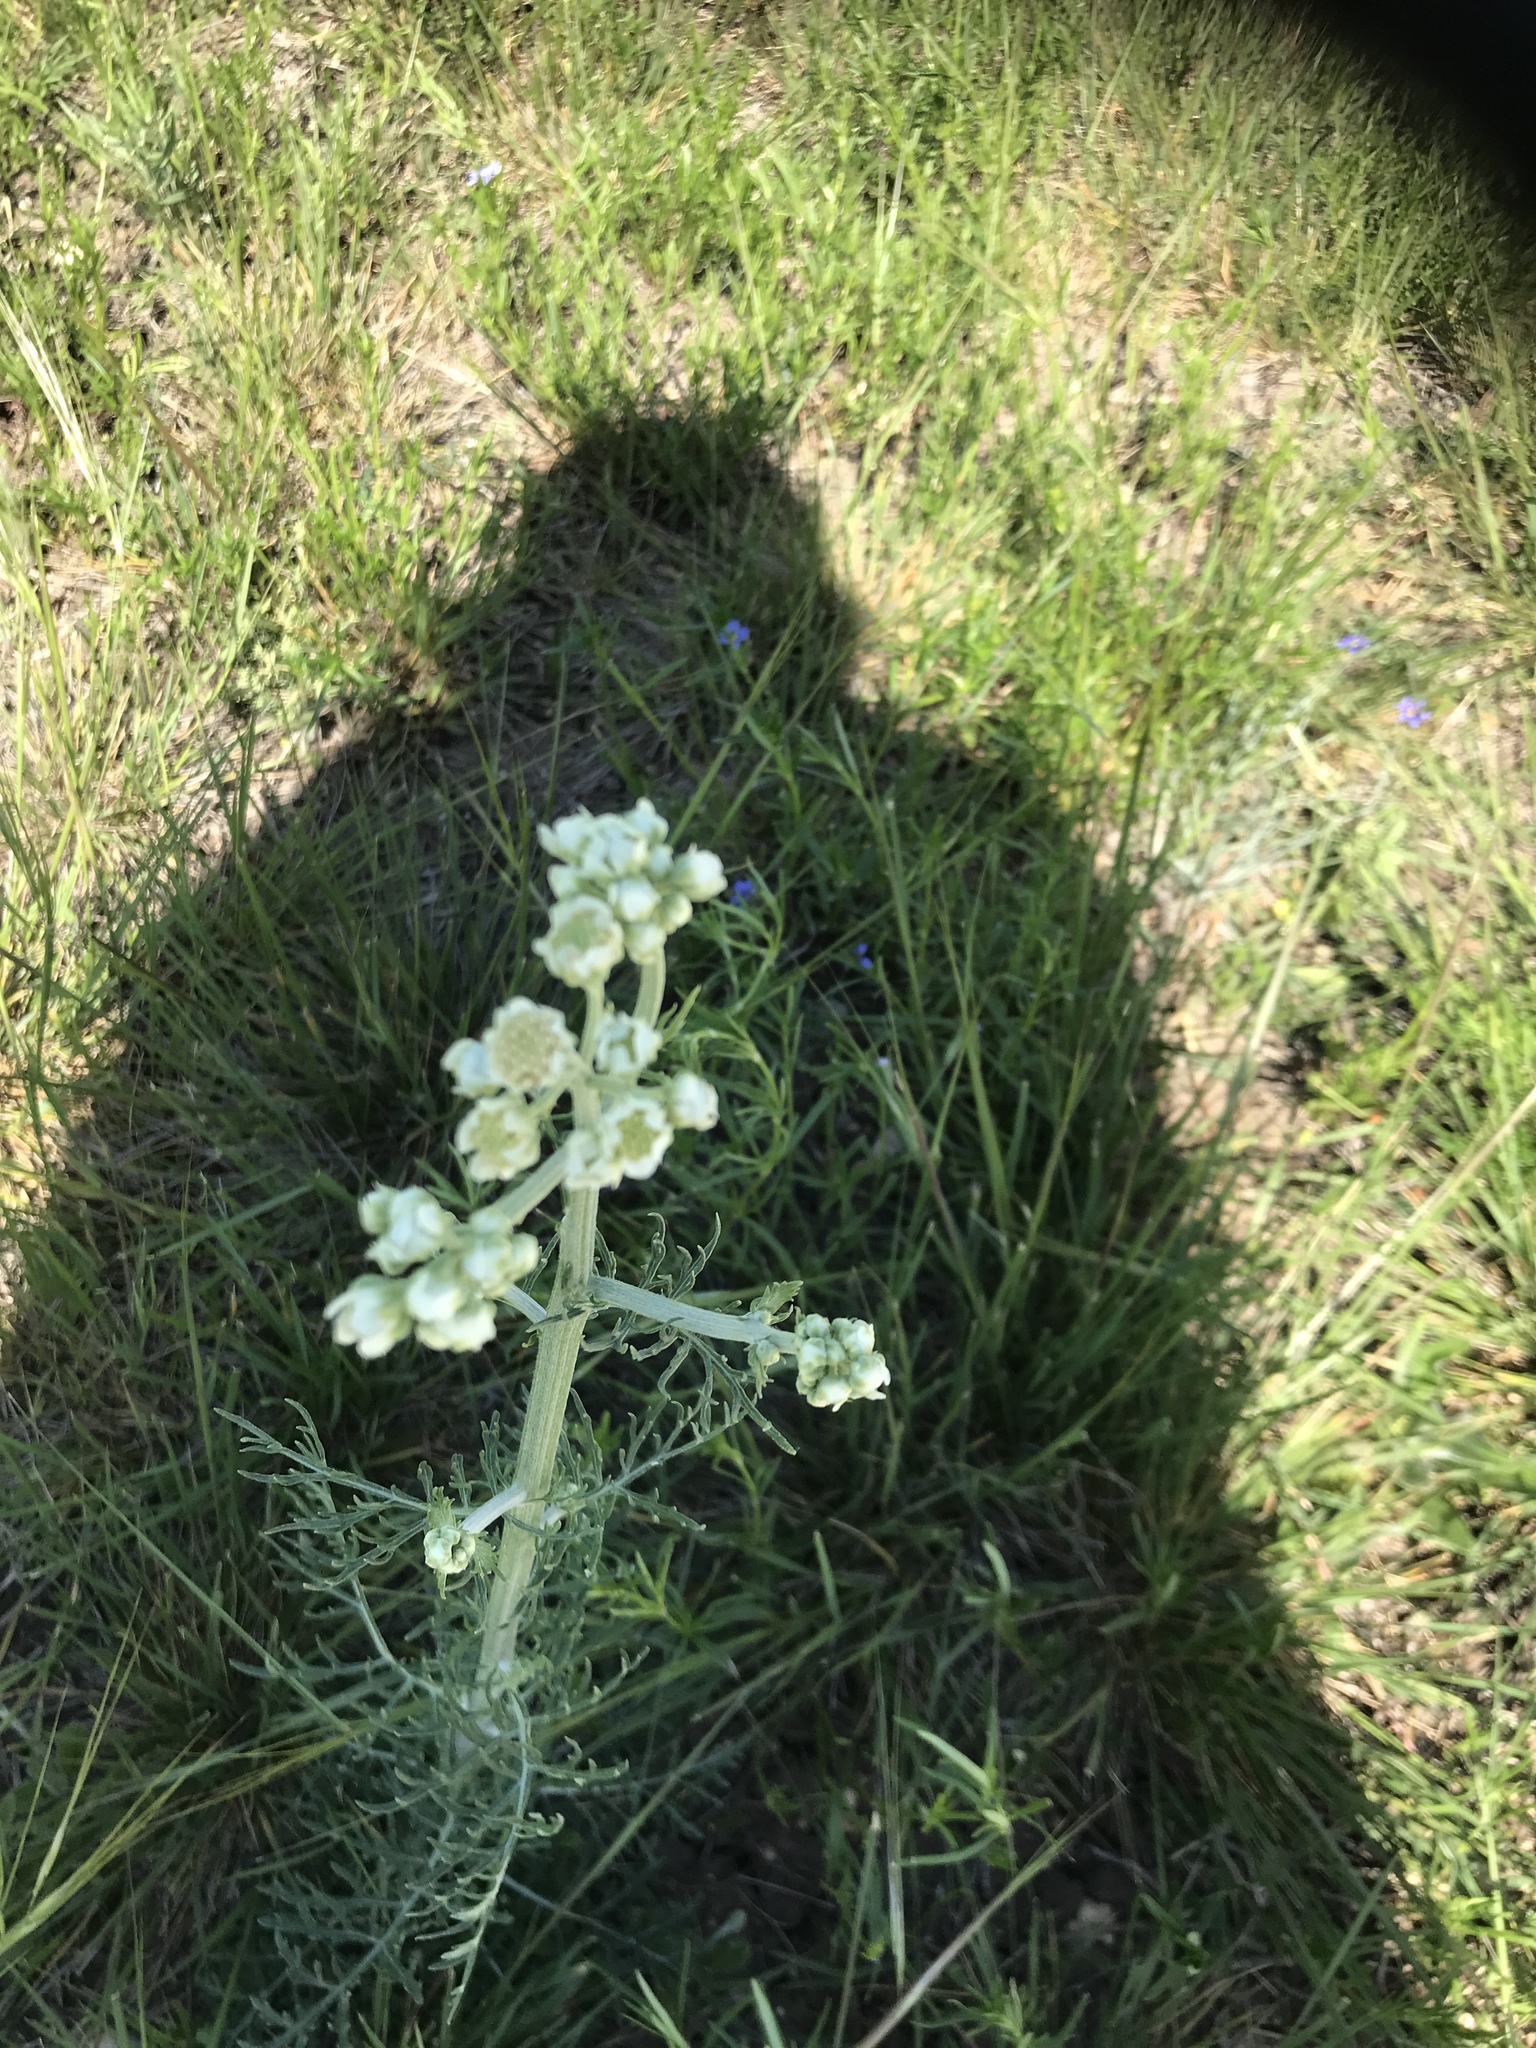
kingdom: Plantae
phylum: Tracheophyta
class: Magnoliopsida
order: Asterales
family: Asteraceae
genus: Hymenopappus
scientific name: Hymenopappus scabiosaeus
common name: Carolina woollywhite
